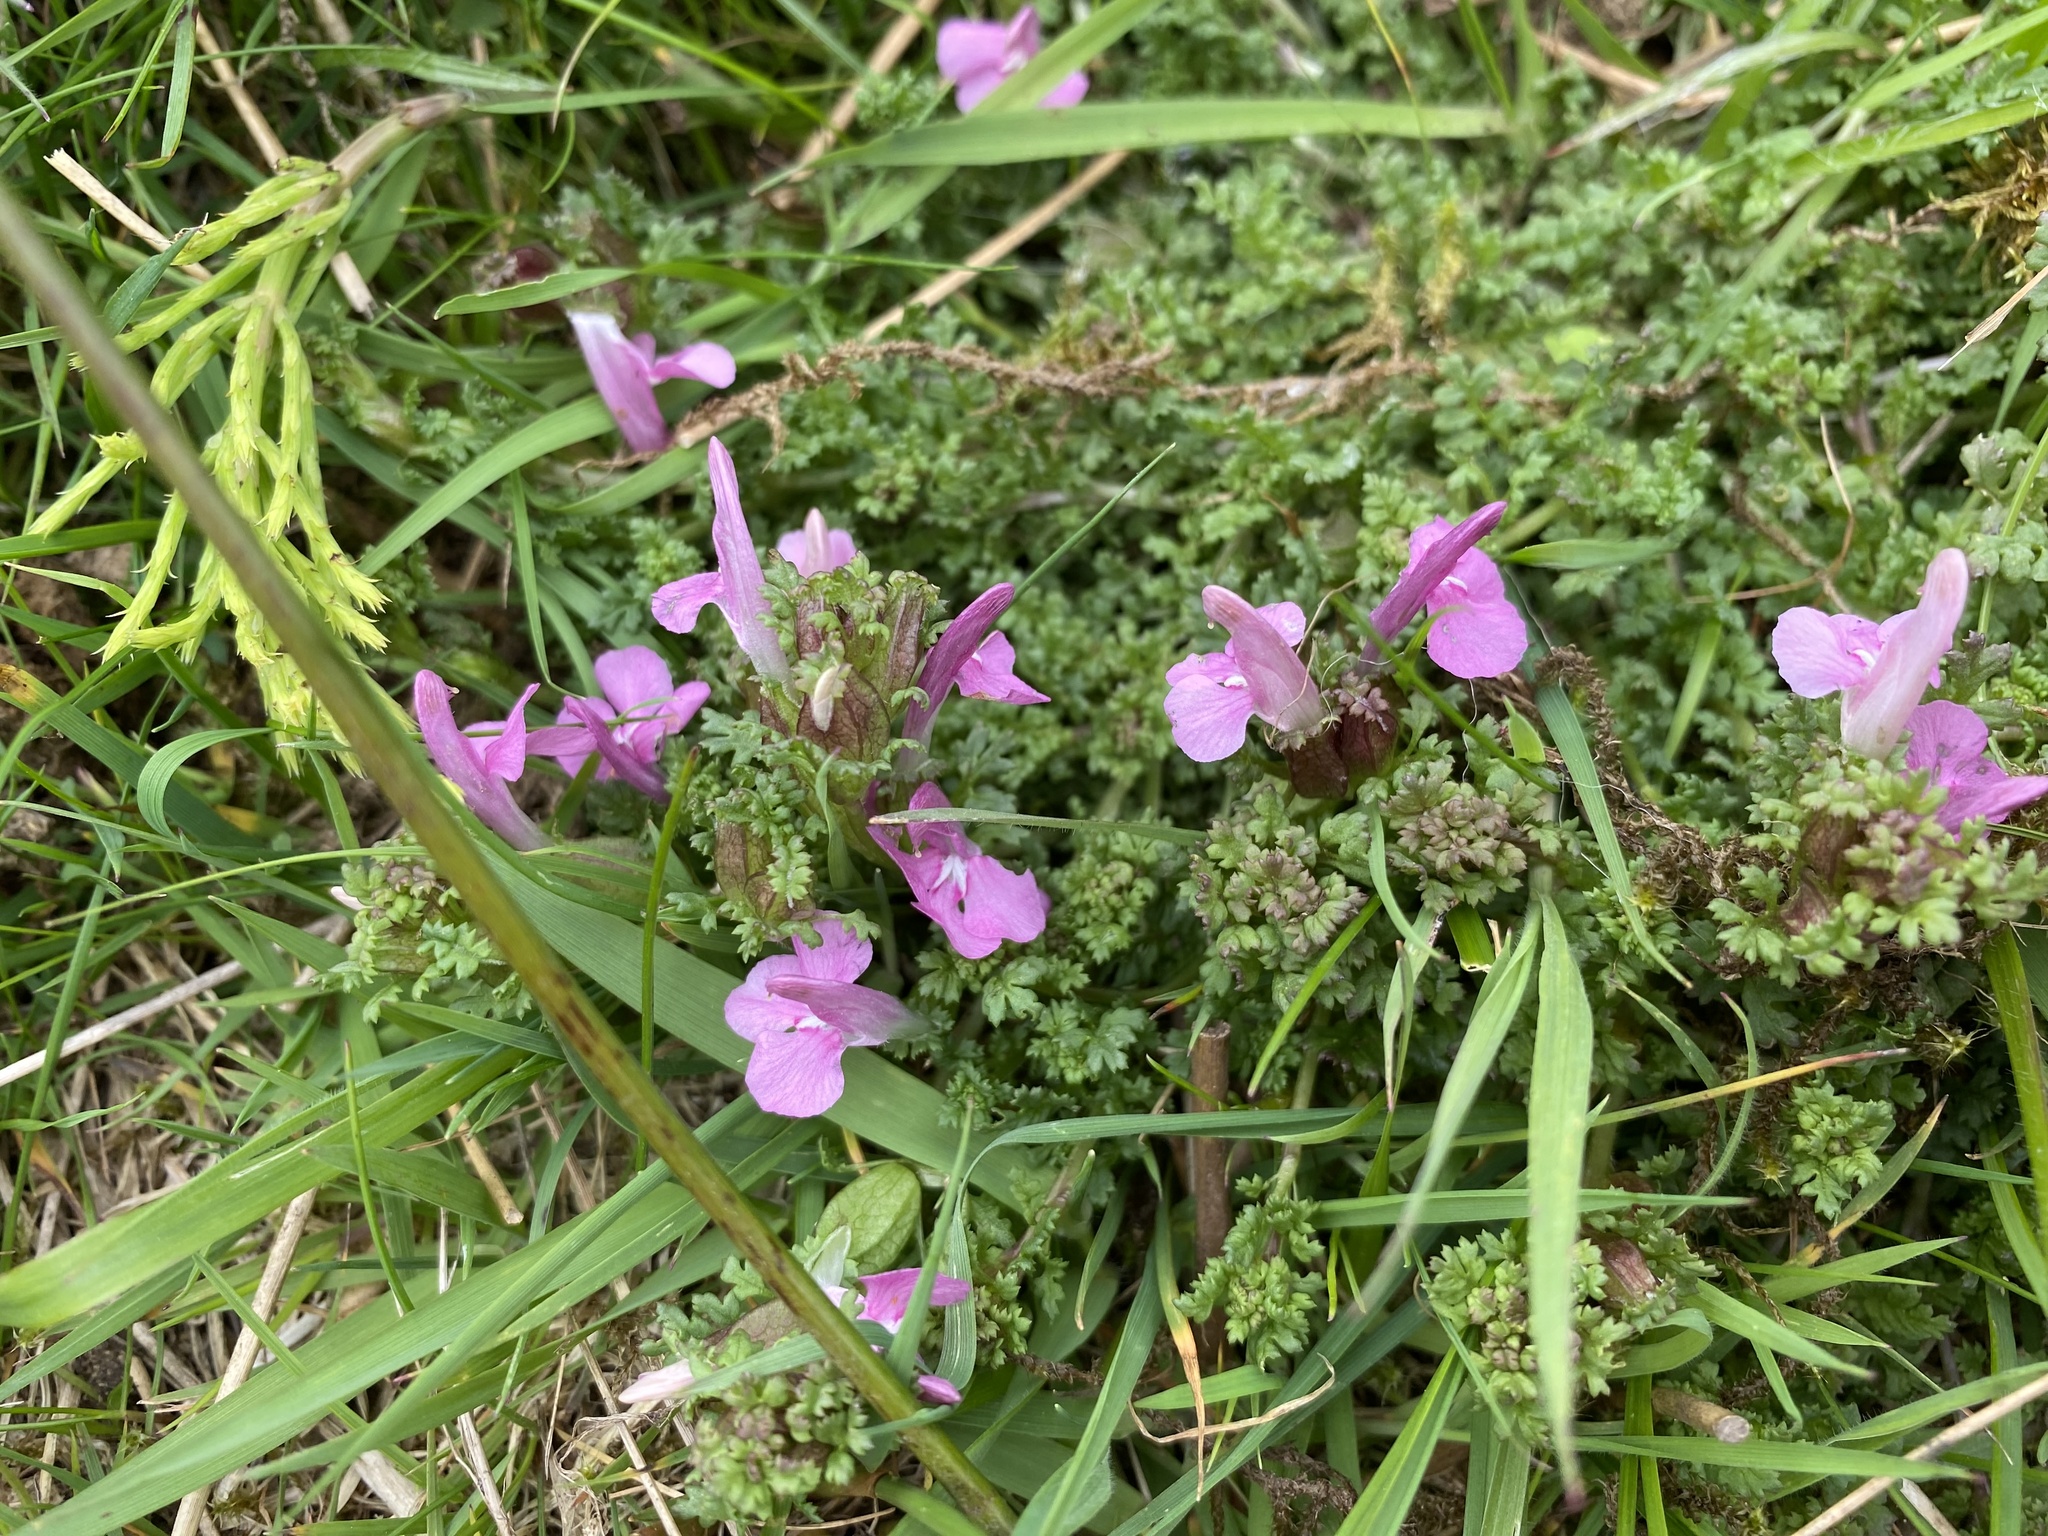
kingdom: Plantae
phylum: Tracheophyta
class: Magnoliopsida
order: Lamiales
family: Orobanchaceae
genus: Pedicularis
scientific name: Pedicularis sylvatica
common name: Lousewort
